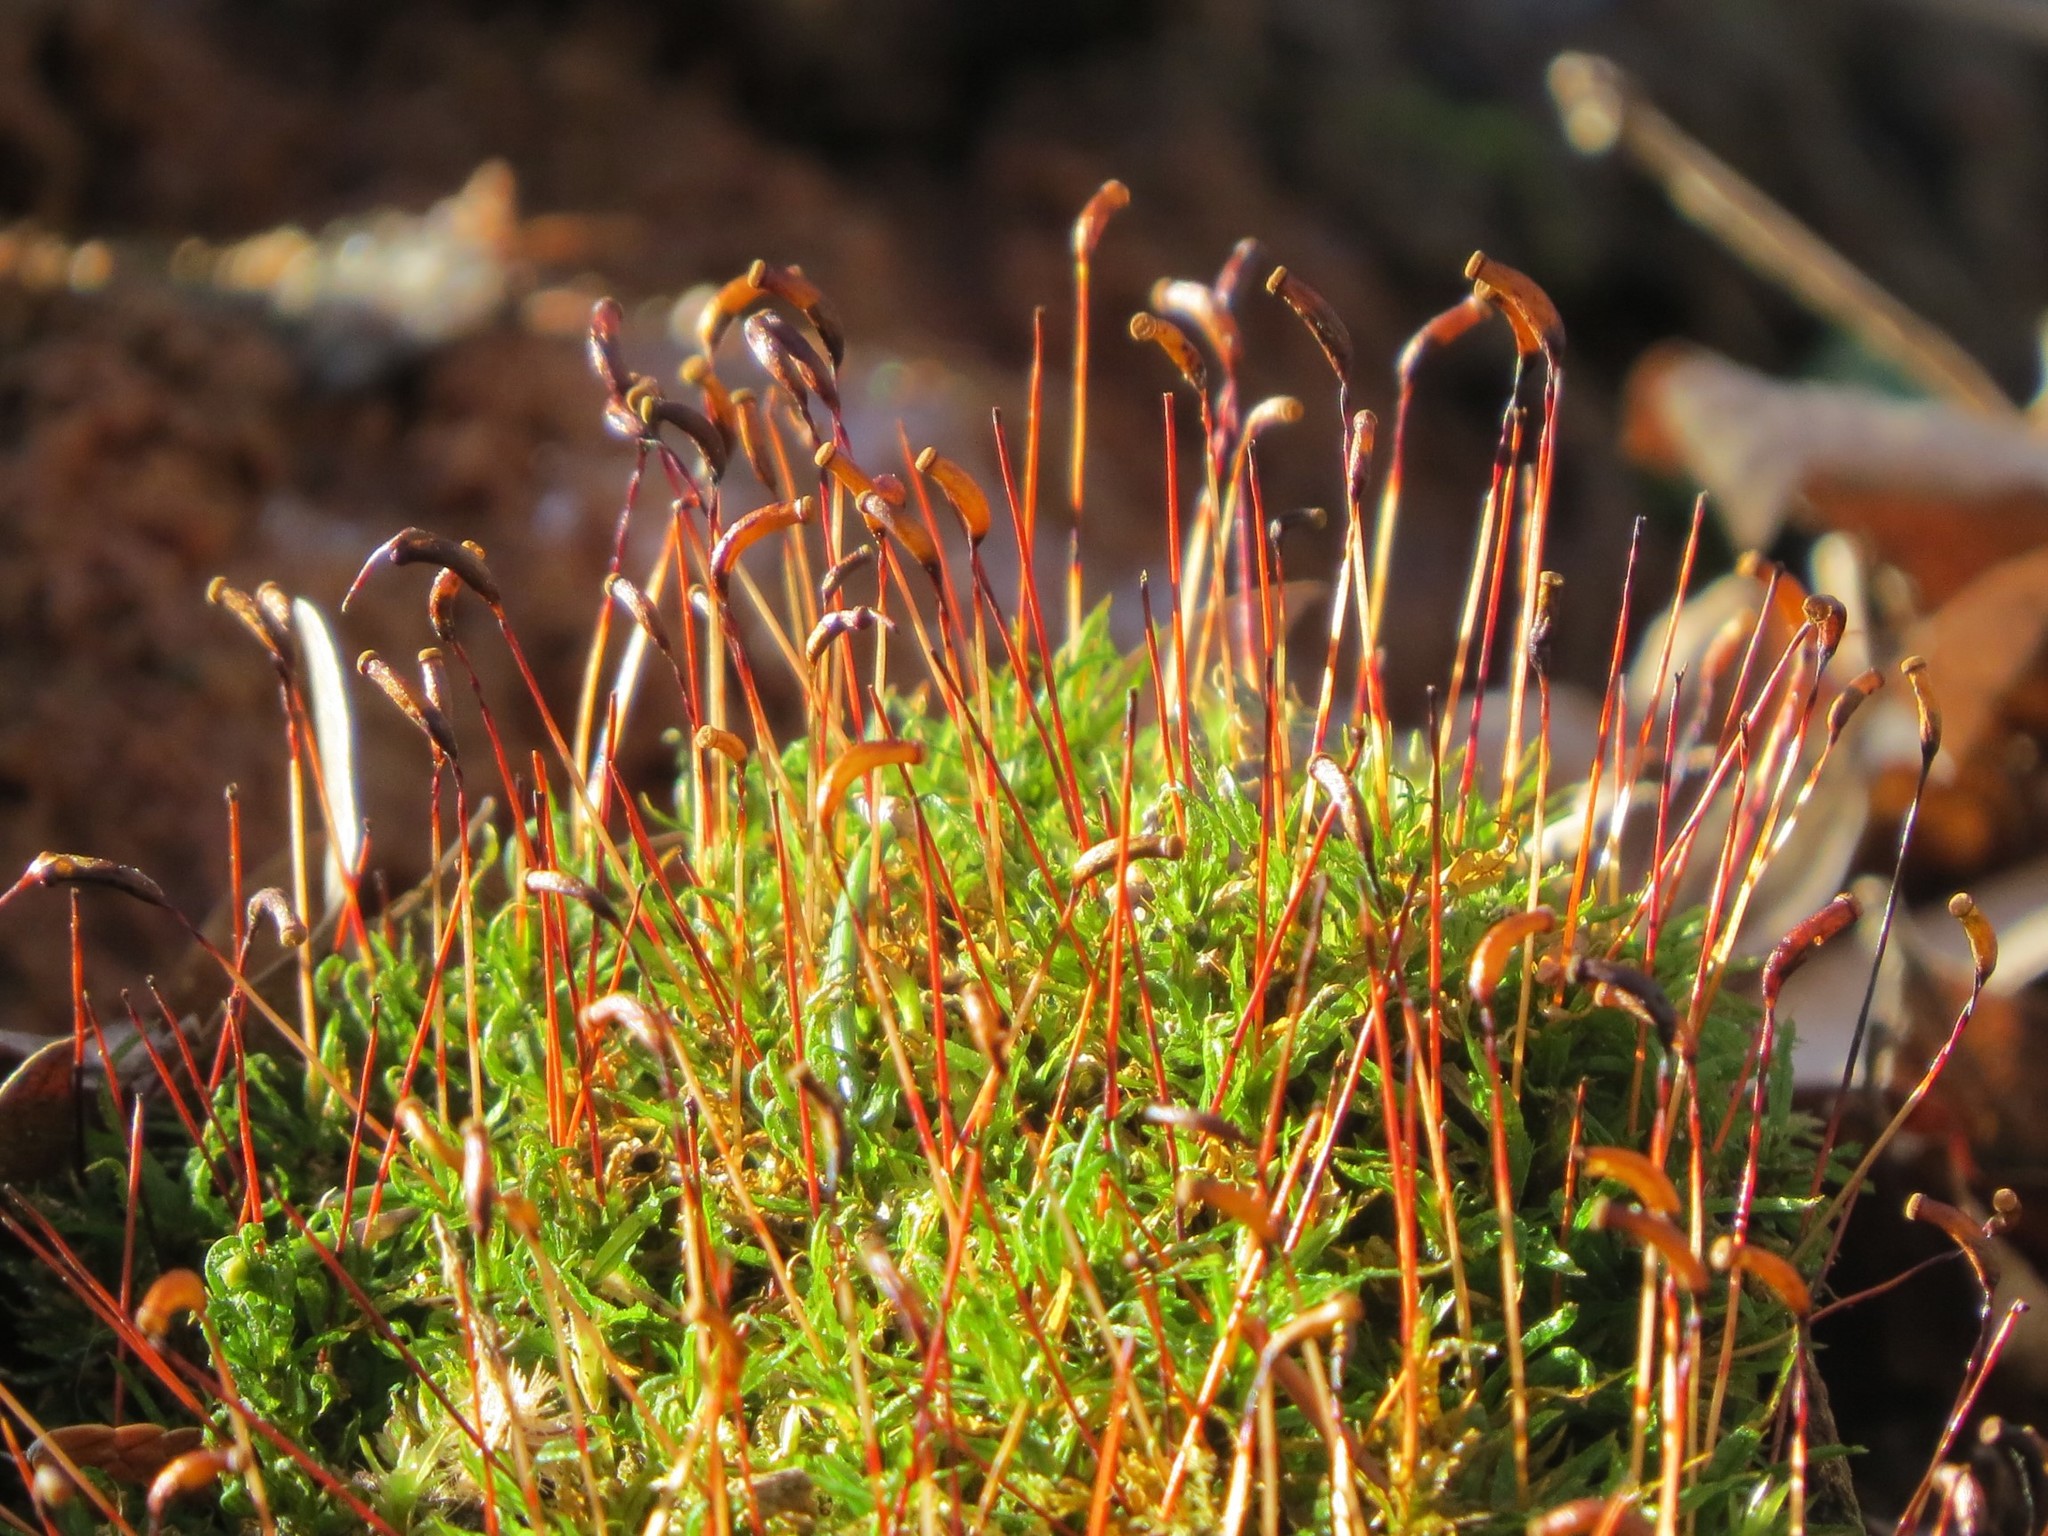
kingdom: Plantae
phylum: Bryophyta
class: Polytrichopsida
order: Polytrichales
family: Polytrichaceae
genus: Atrichum
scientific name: Atrichum undulatum
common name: Common smoothcap
